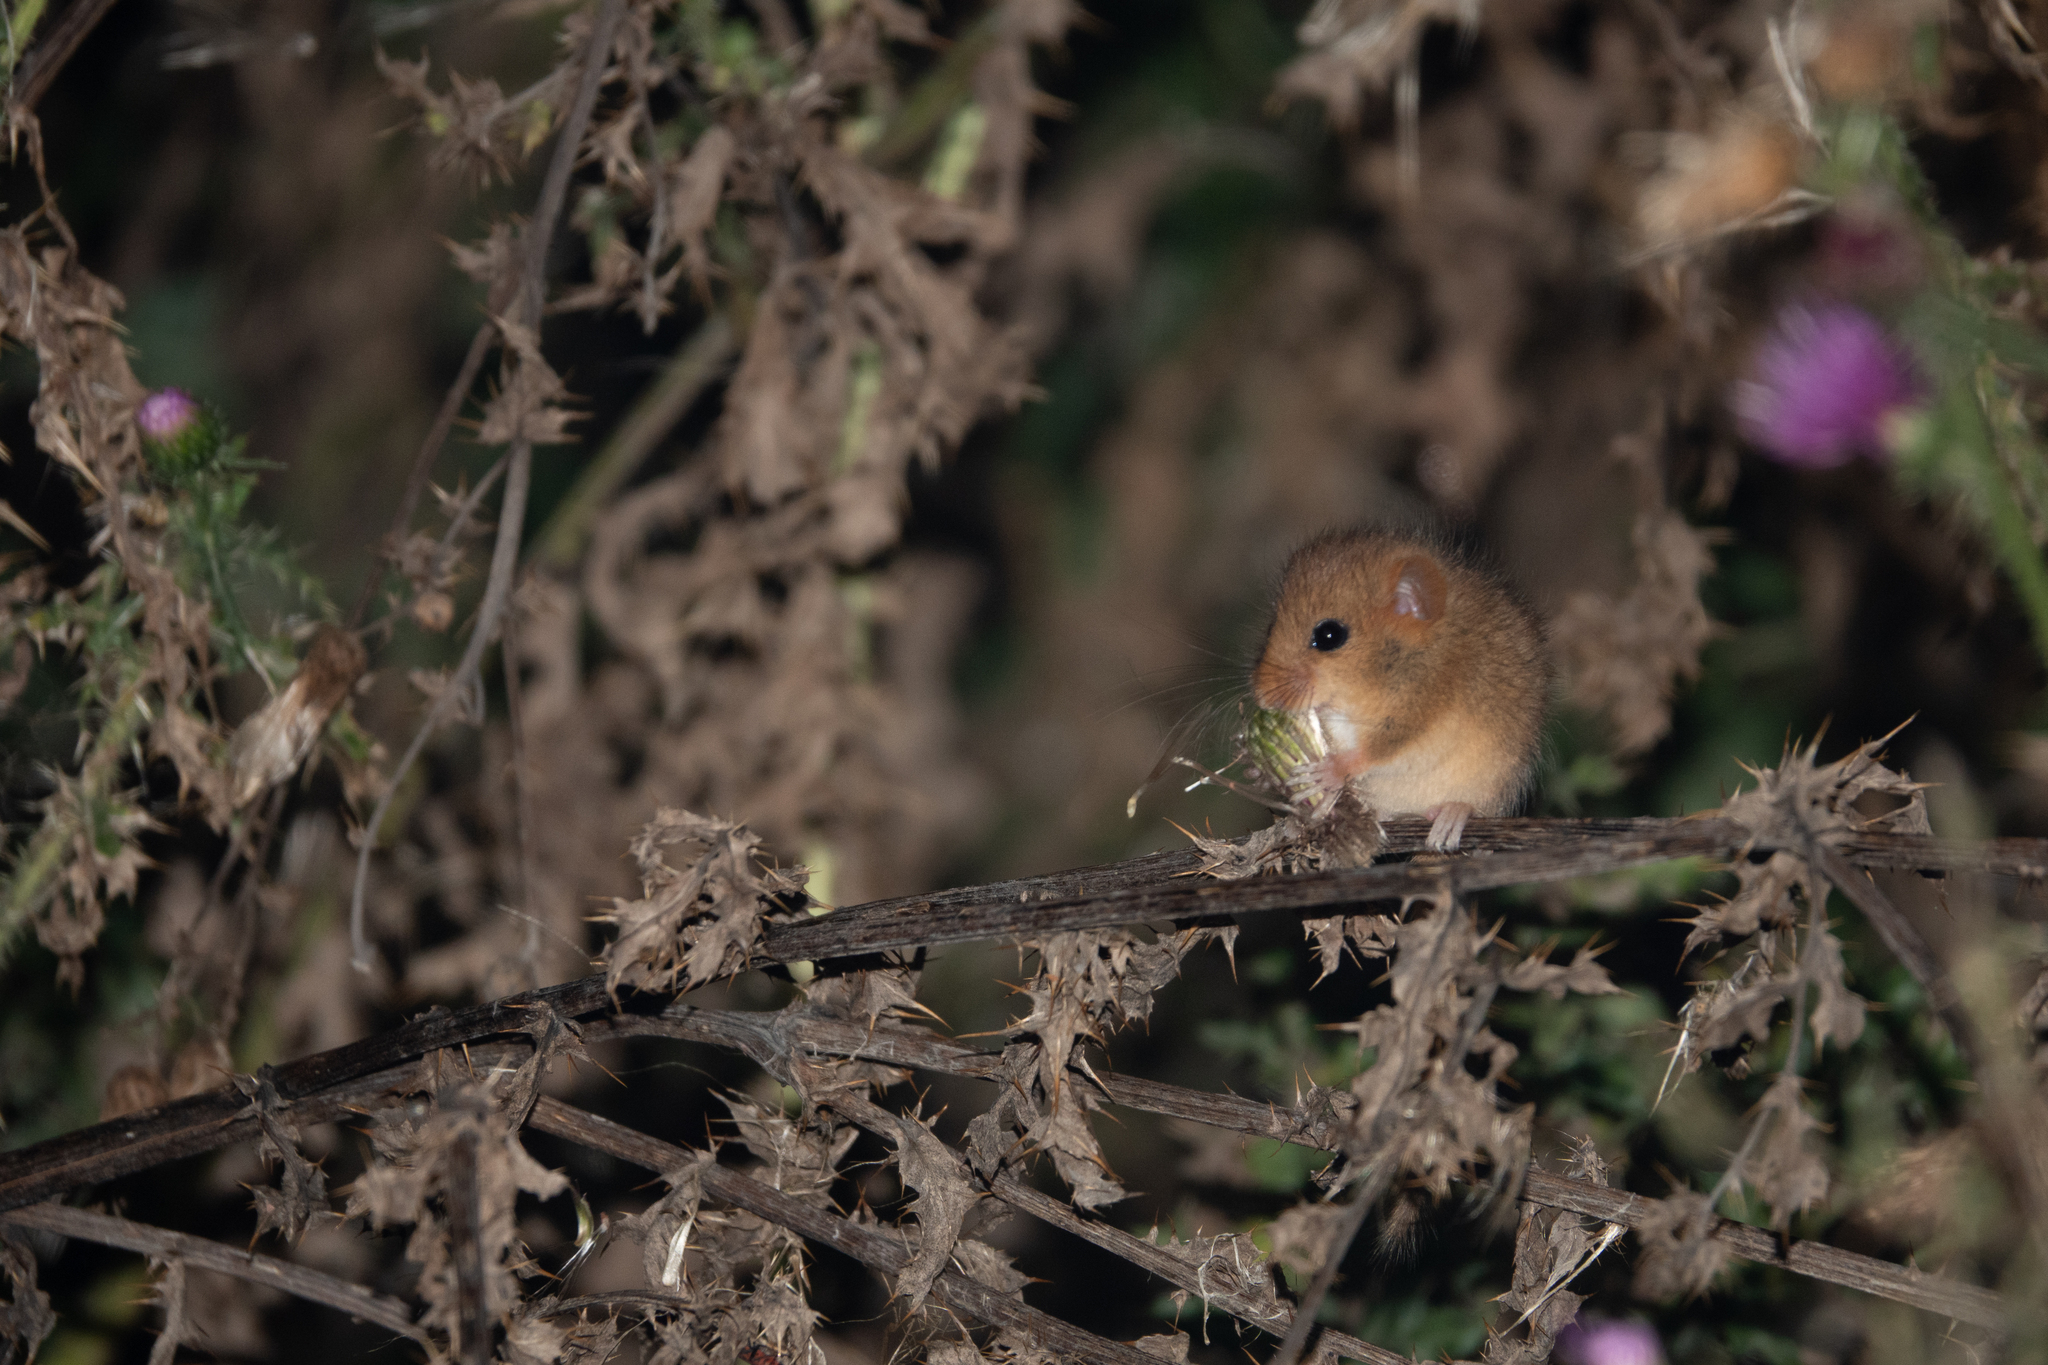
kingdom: Animalia
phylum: Chordata
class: Mammalia
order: Rodentia
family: Muridae
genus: Micromys
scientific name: Micromys minutus
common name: Harvest mouse
